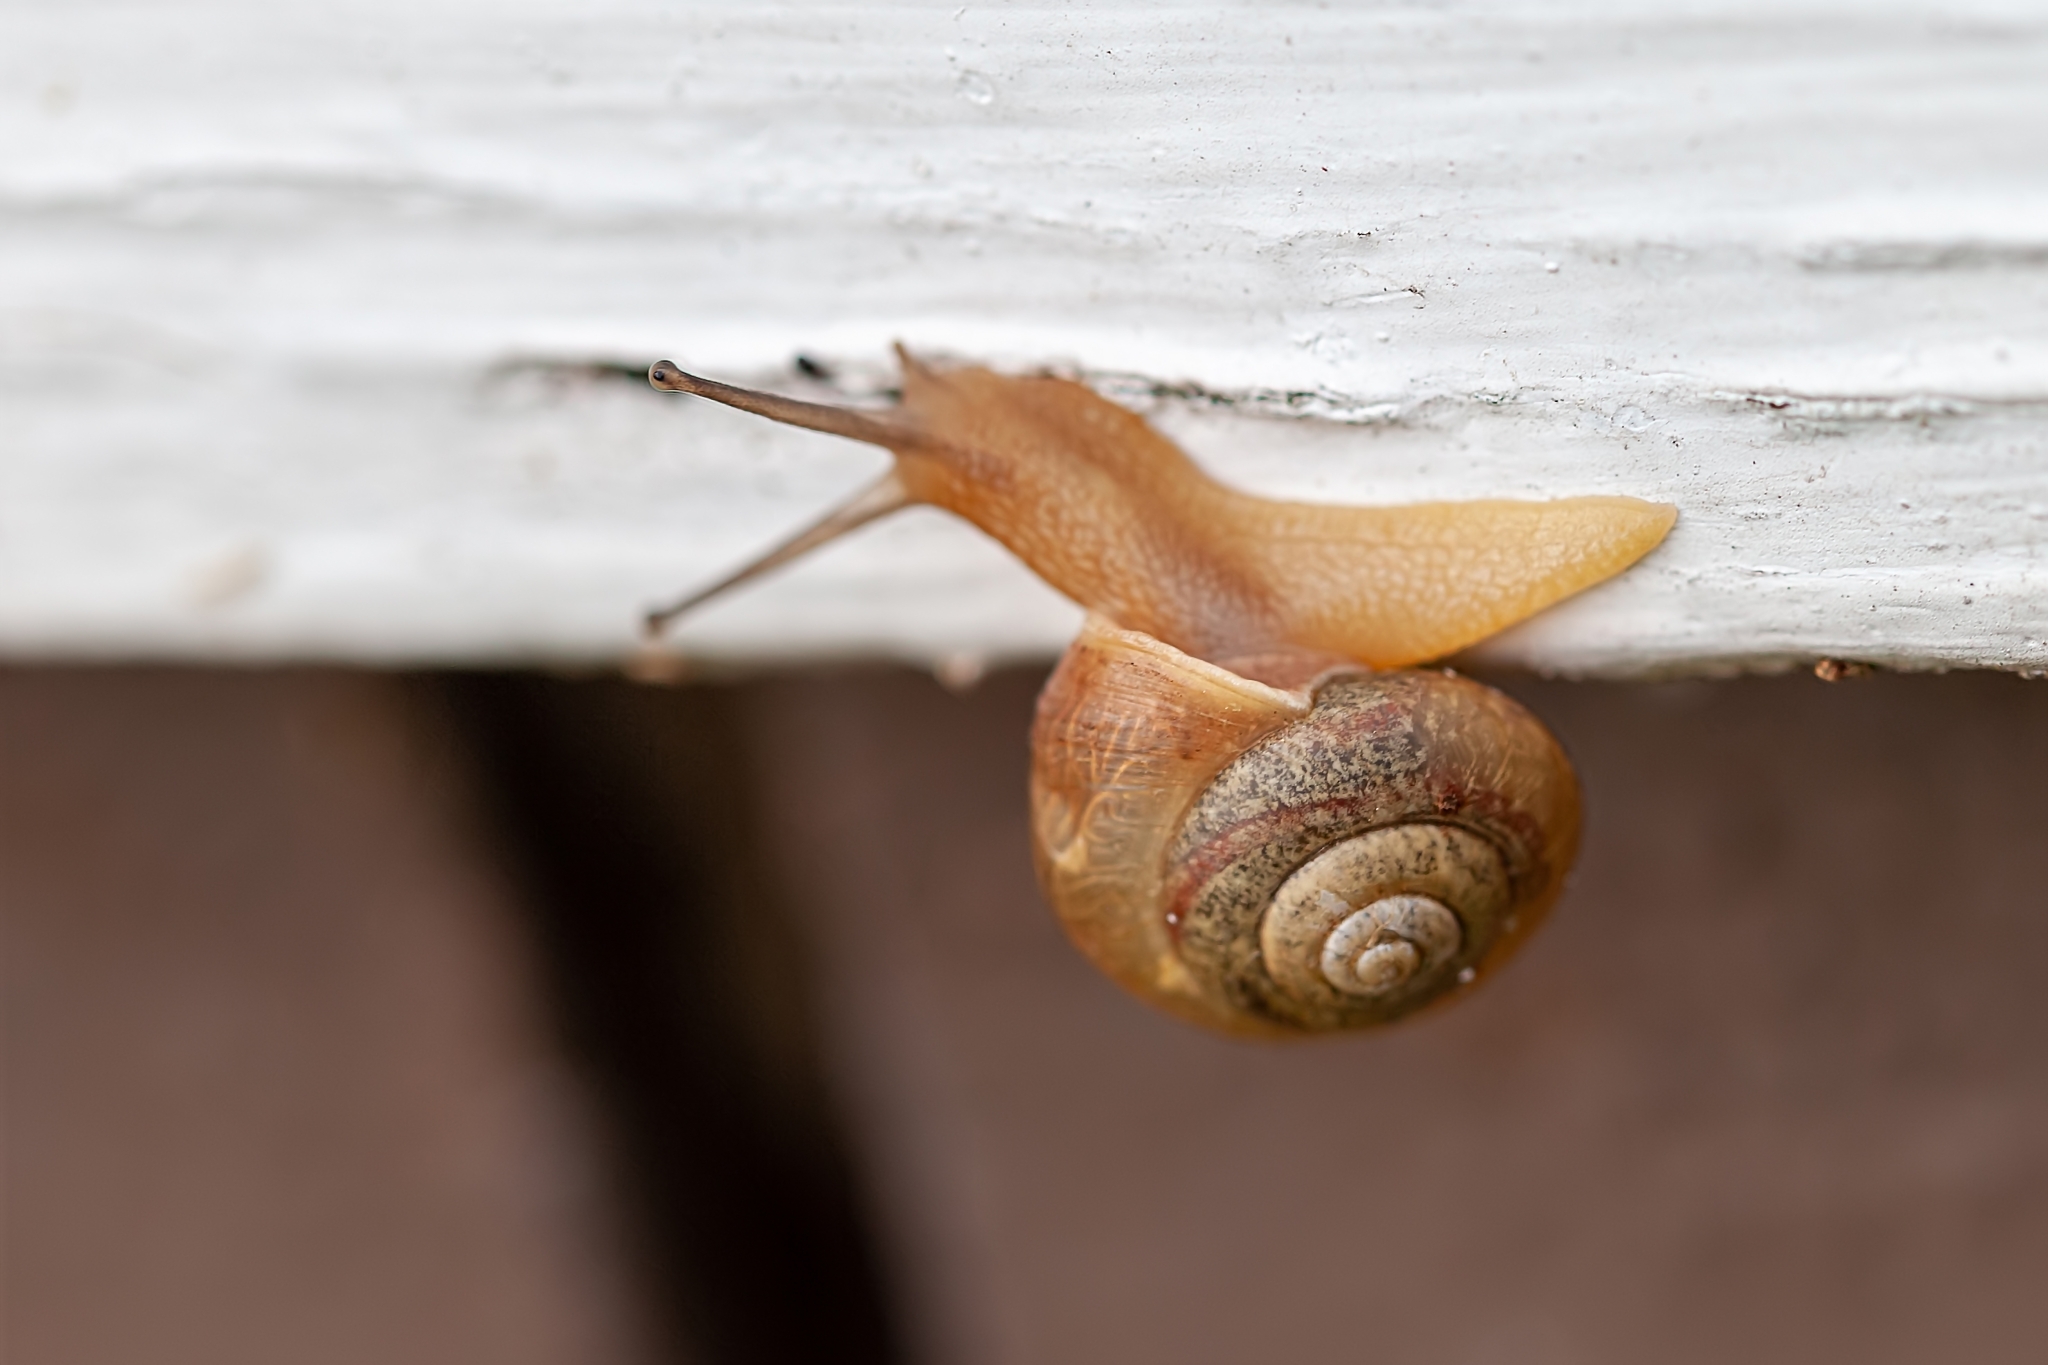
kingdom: Animalia
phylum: Mollusca
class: Gastropoda
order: Stylommatophora
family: Camaenidae
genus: Bradybaena
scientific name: Bradybaena similaris
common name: Asian trampsnail
